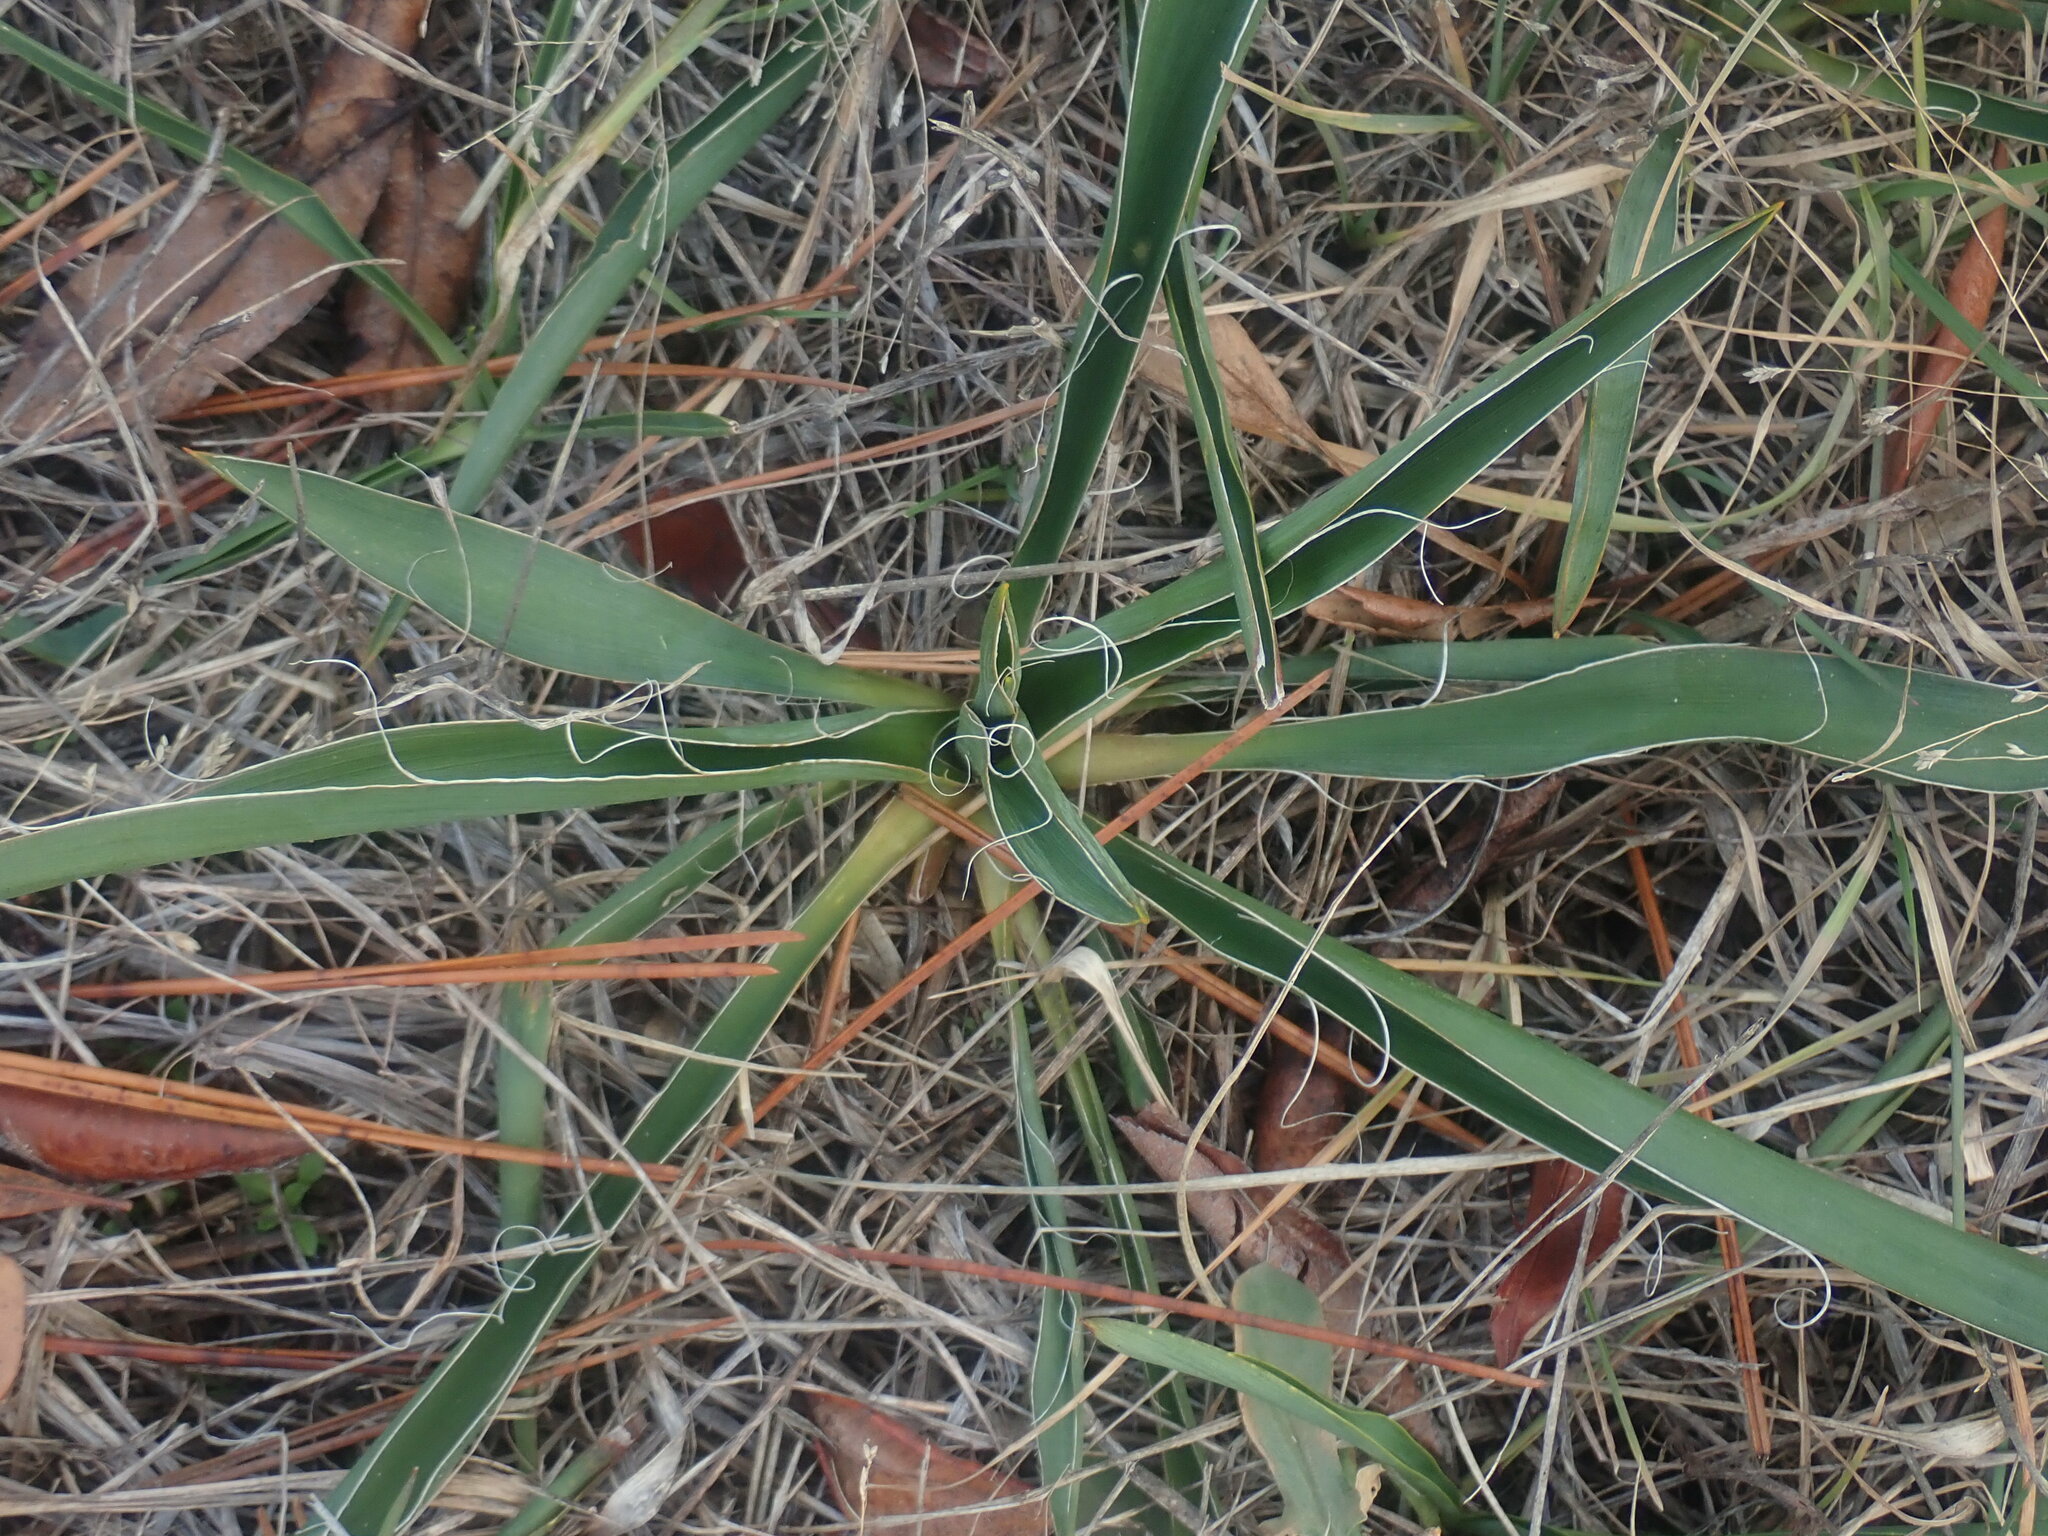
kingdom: Plantae
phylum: Tracheophyta
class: Liliopsida
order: Asparagales
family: Asparagaceae
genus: Yucca
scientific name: Yucca filamentosa
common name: Adam's-needle
